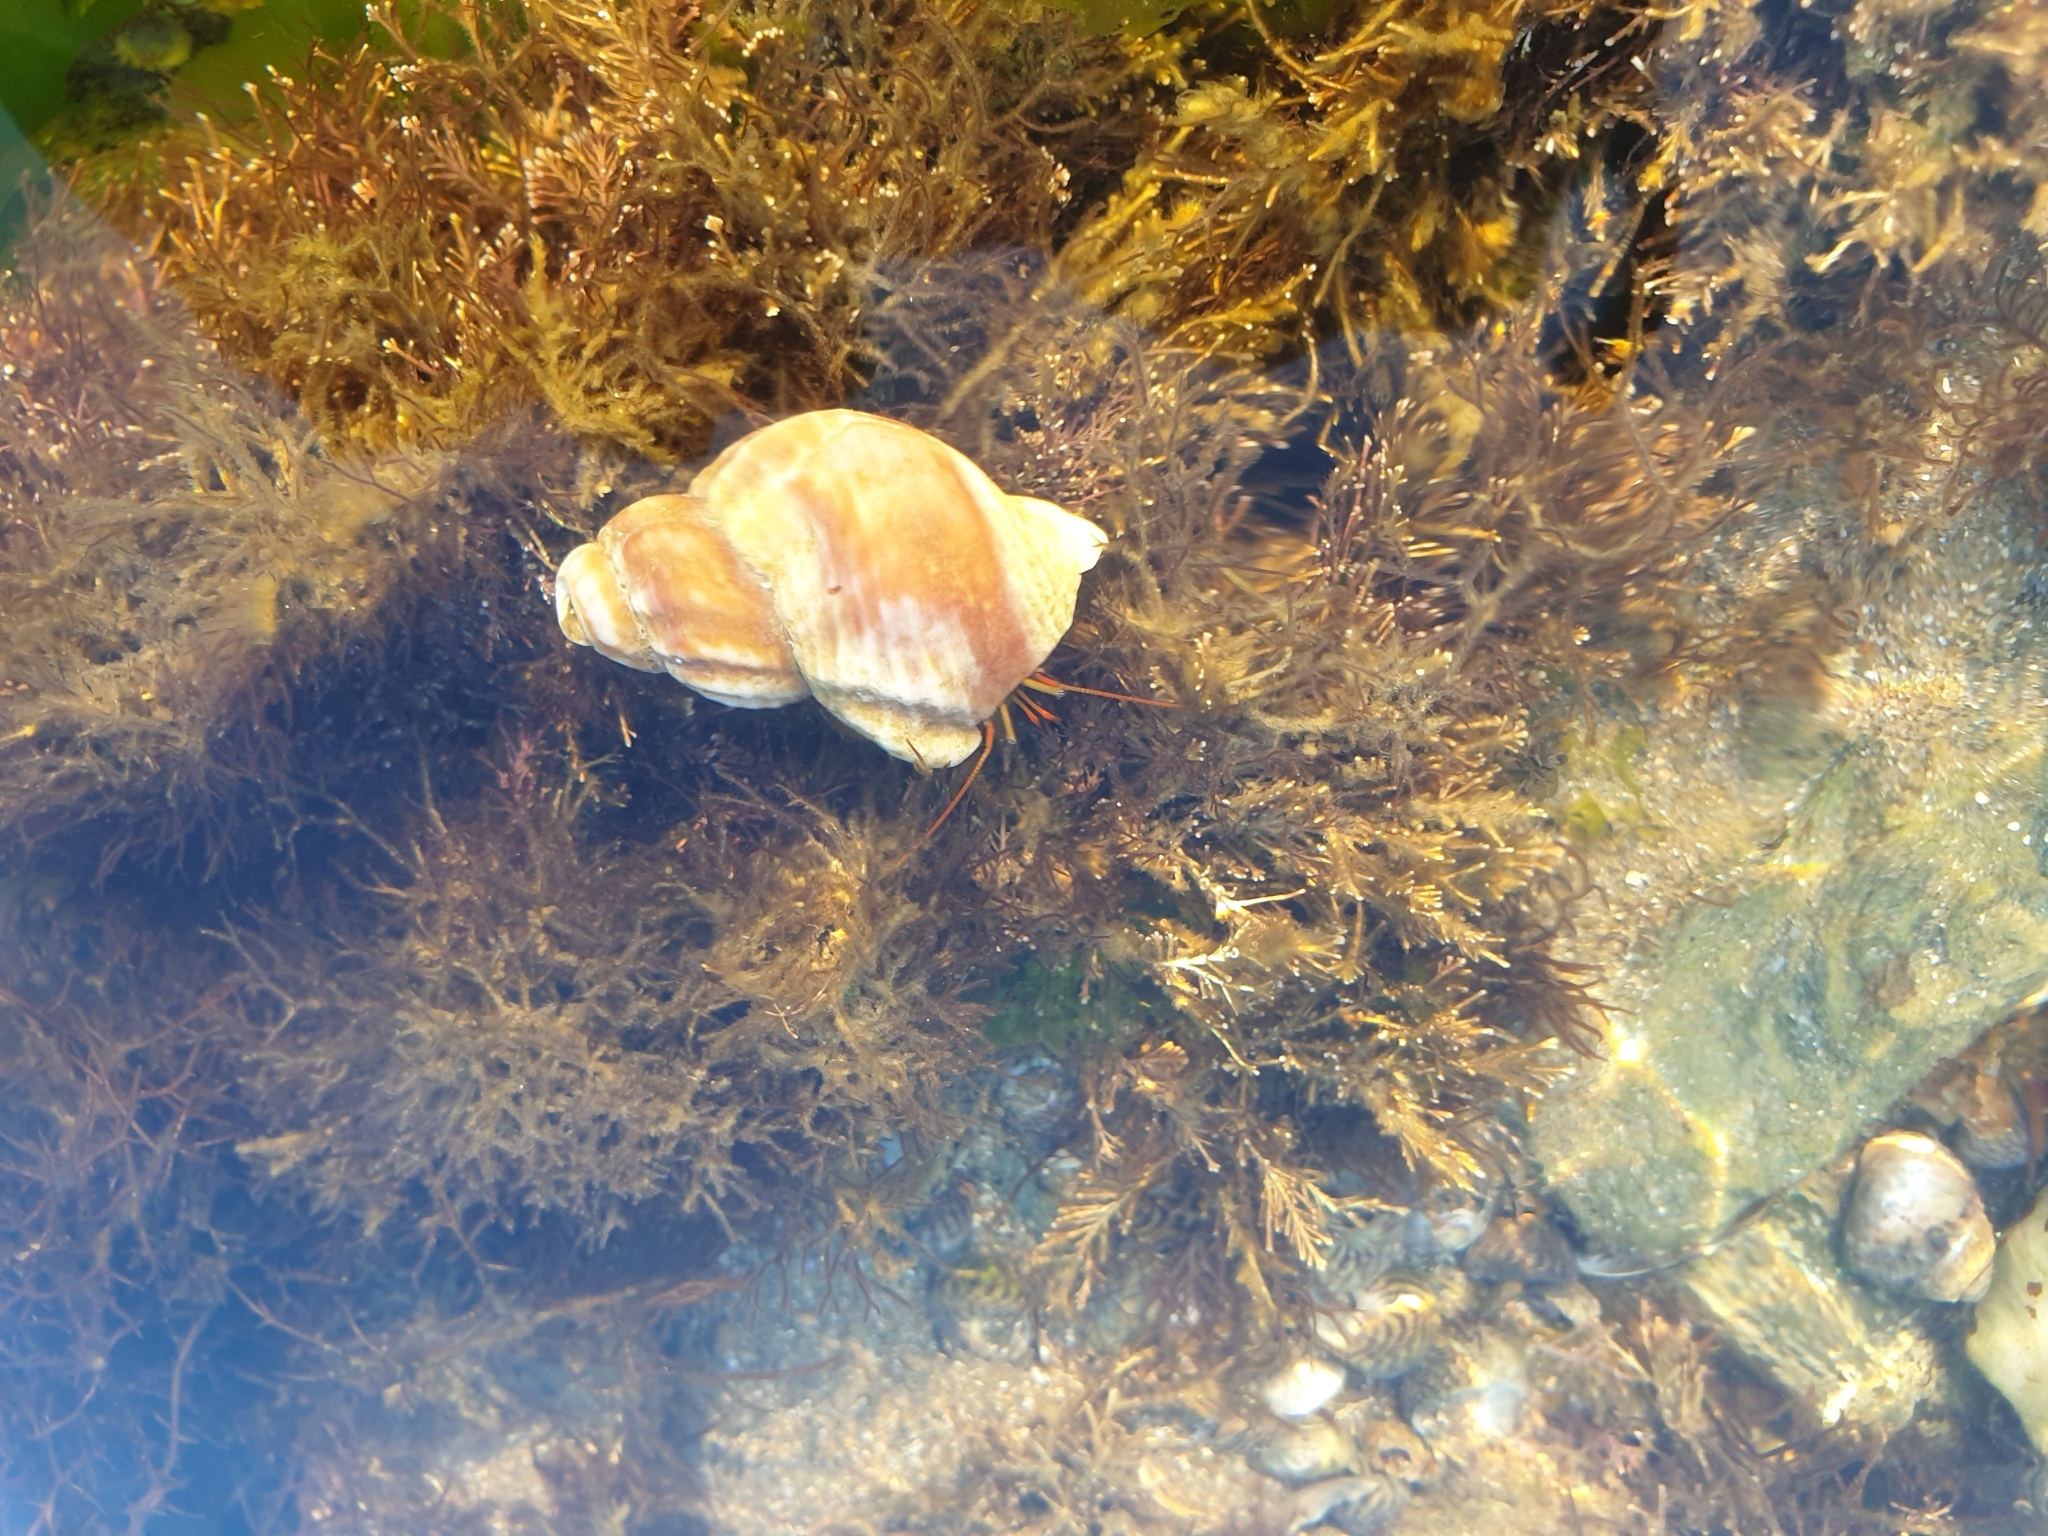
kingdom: Animalia
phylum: Arthropoda
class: Malacostraca
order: Decapoda
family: Diogenidae
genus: Clibanarius
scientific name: Clibanarius erythropus
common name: Hermit crab
